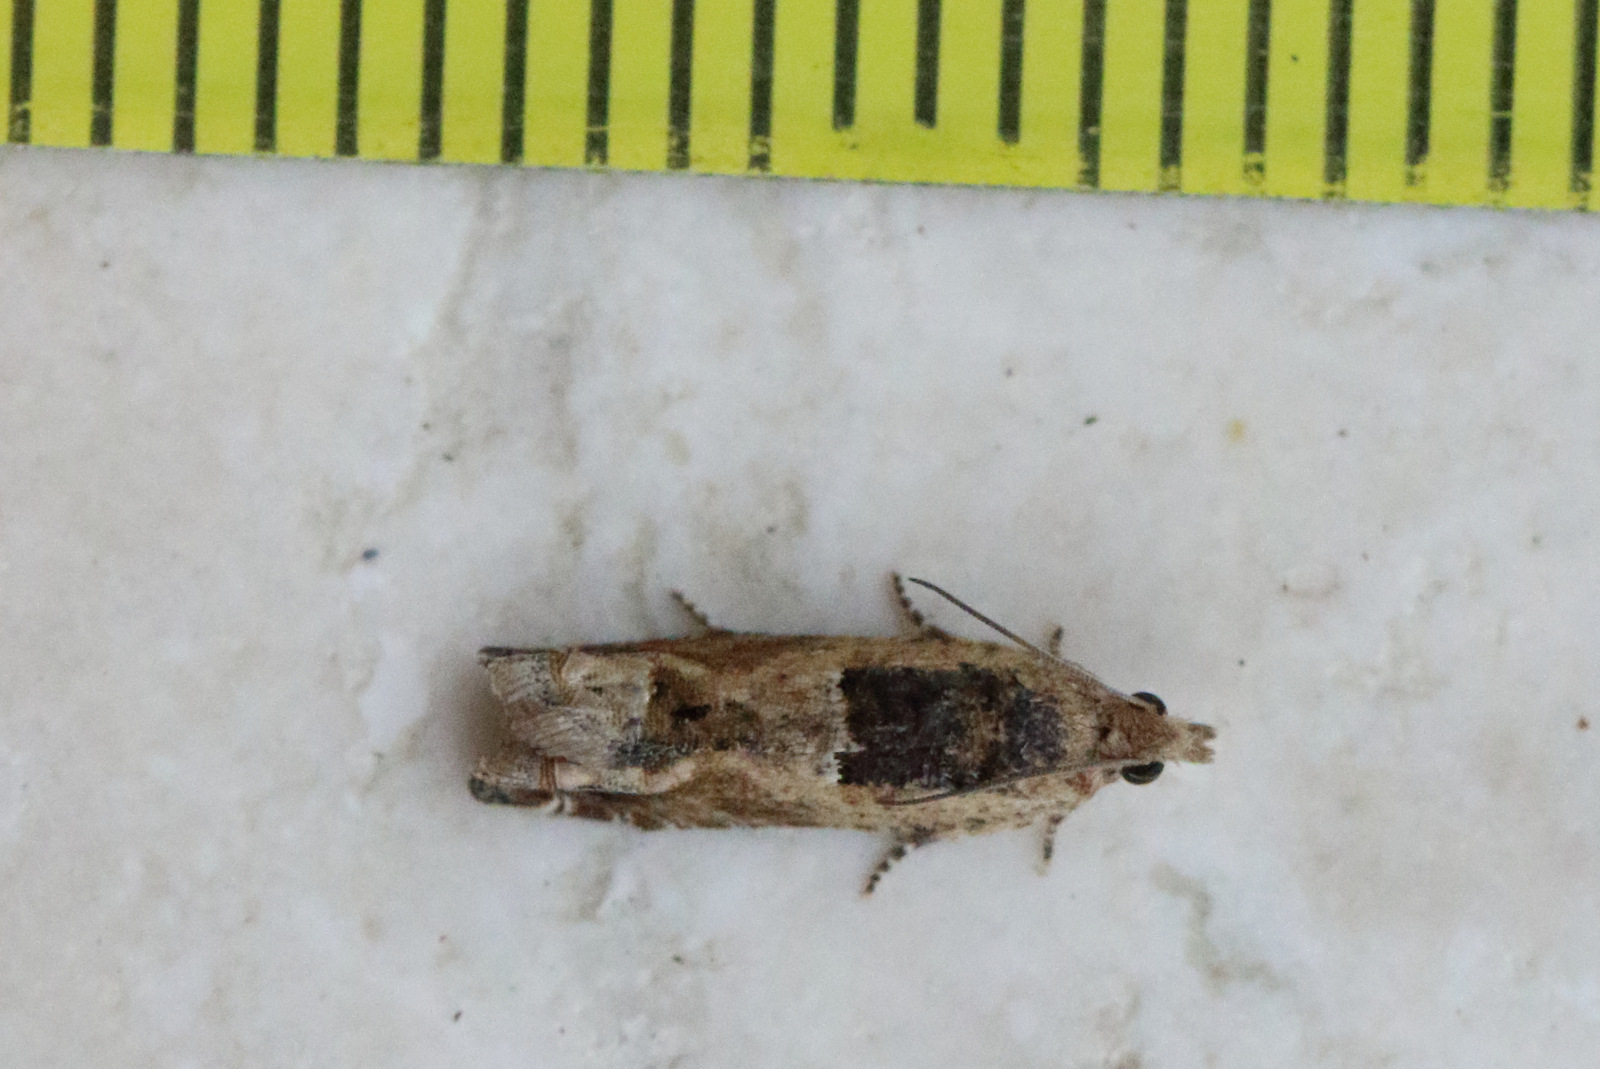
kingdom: Animalia
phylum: Arthropoda
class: Insecta
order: Lepidoptera
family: Tortricidae
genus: Crocidosema
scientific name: Crocidosema plebejana
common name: Southern bell
